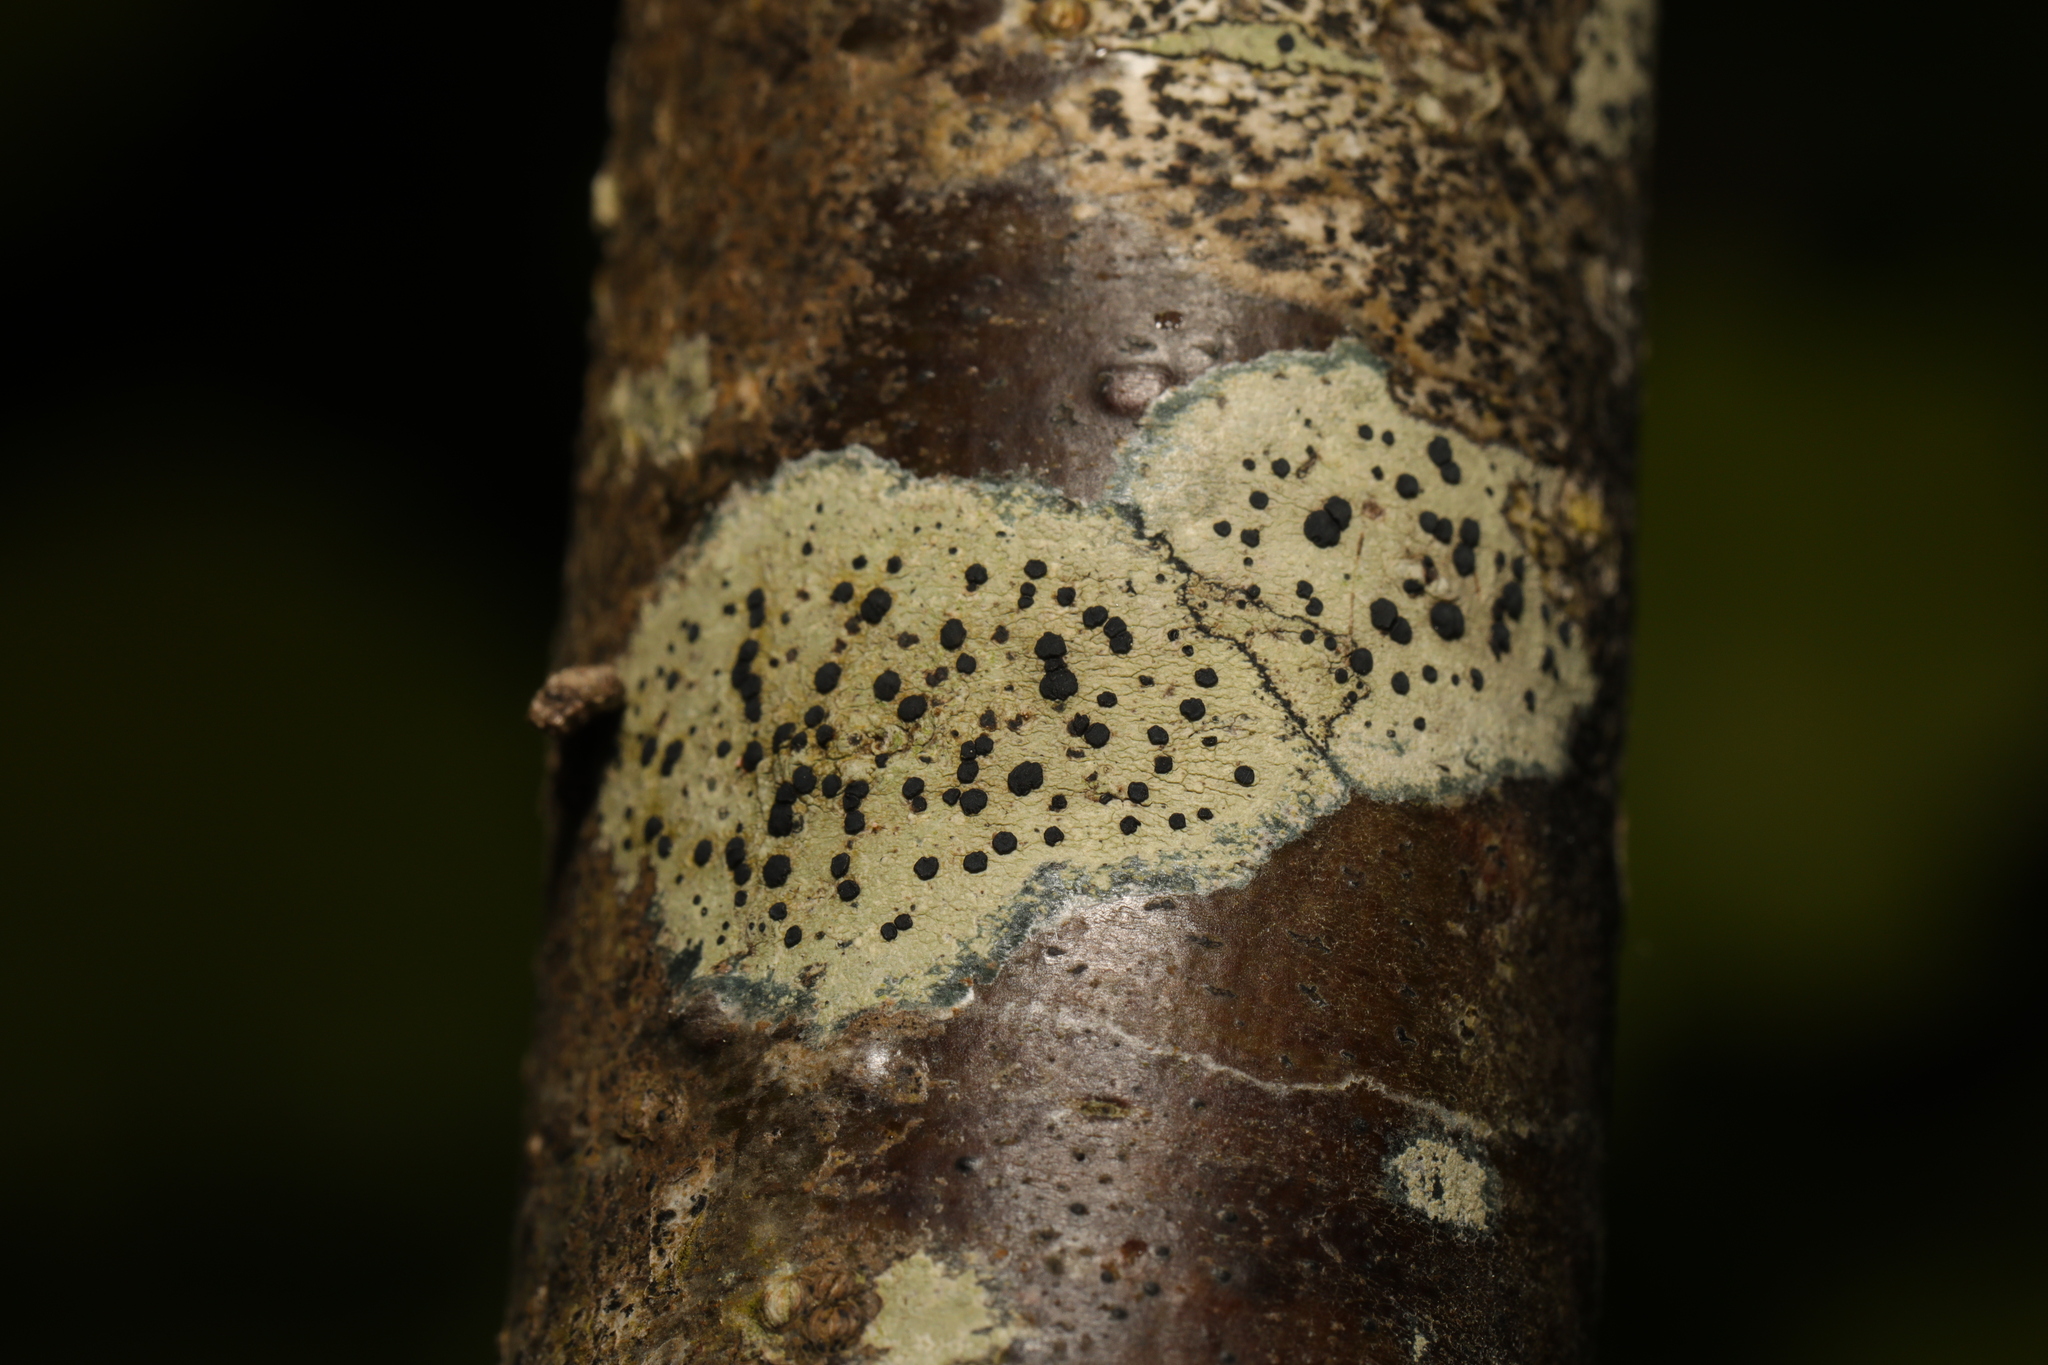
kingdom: Fungi
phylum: Ascomycota
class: Lecanoromycetes
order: Lecanorales
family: Lecanoraceae
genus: Lecidella
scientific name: Lecidella elaeochroma
